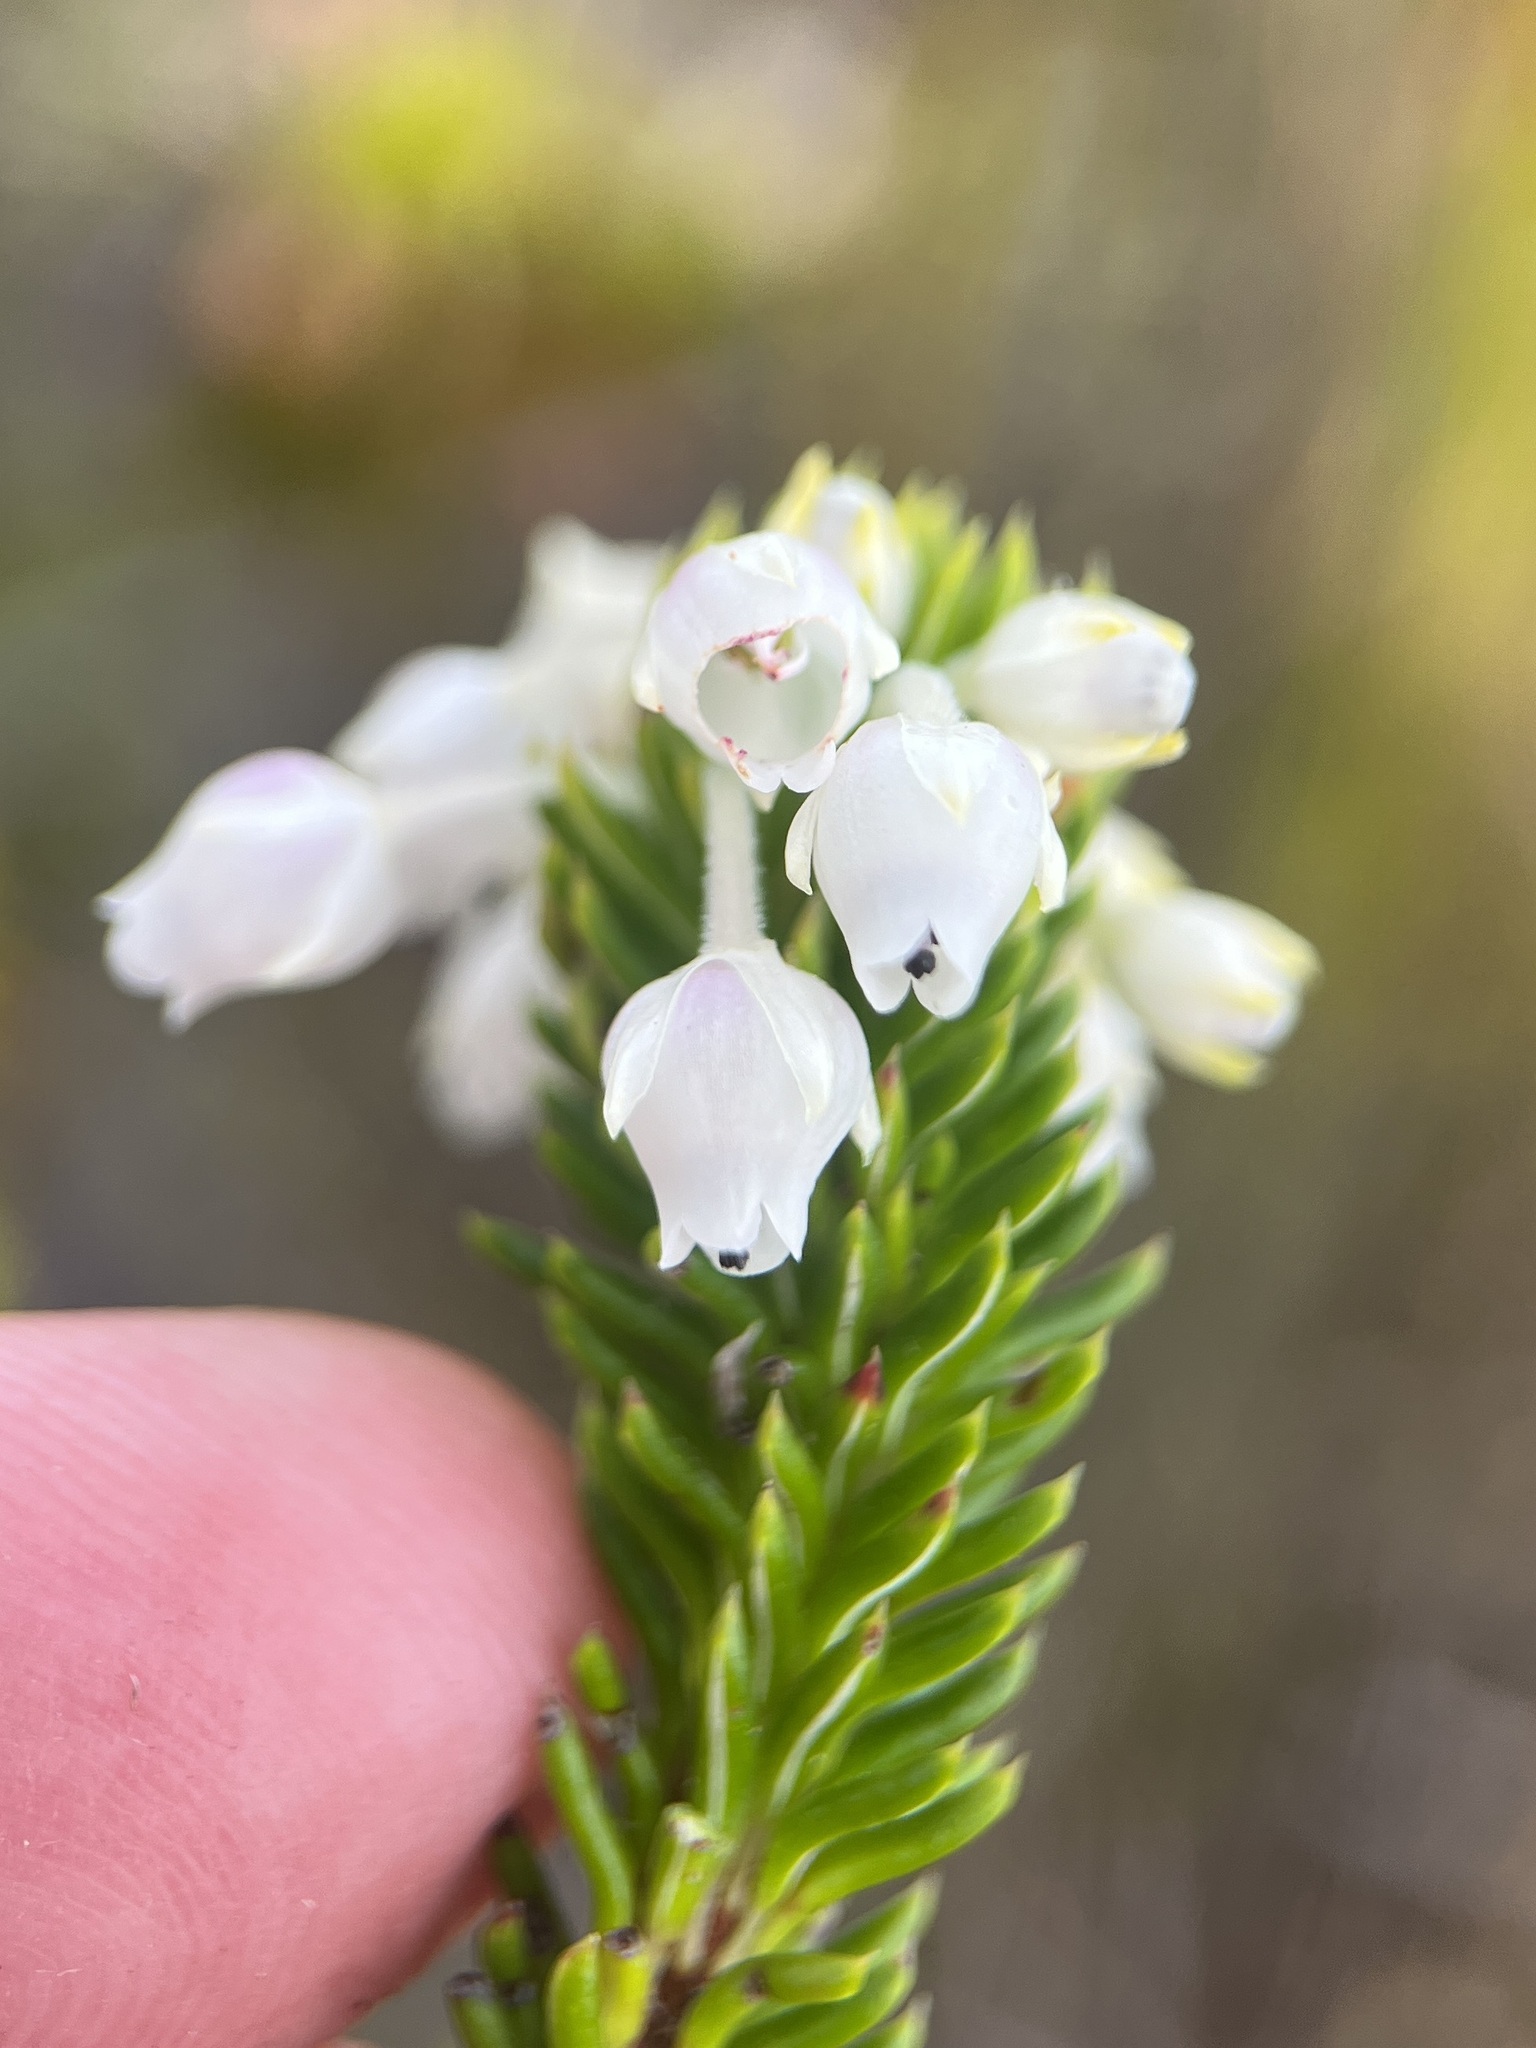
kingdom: Plantae
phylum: Tracheophyta
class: Magnoliopsida
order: Ericales
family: Ericaceae
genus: Erica
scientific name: Erica pulvinata
